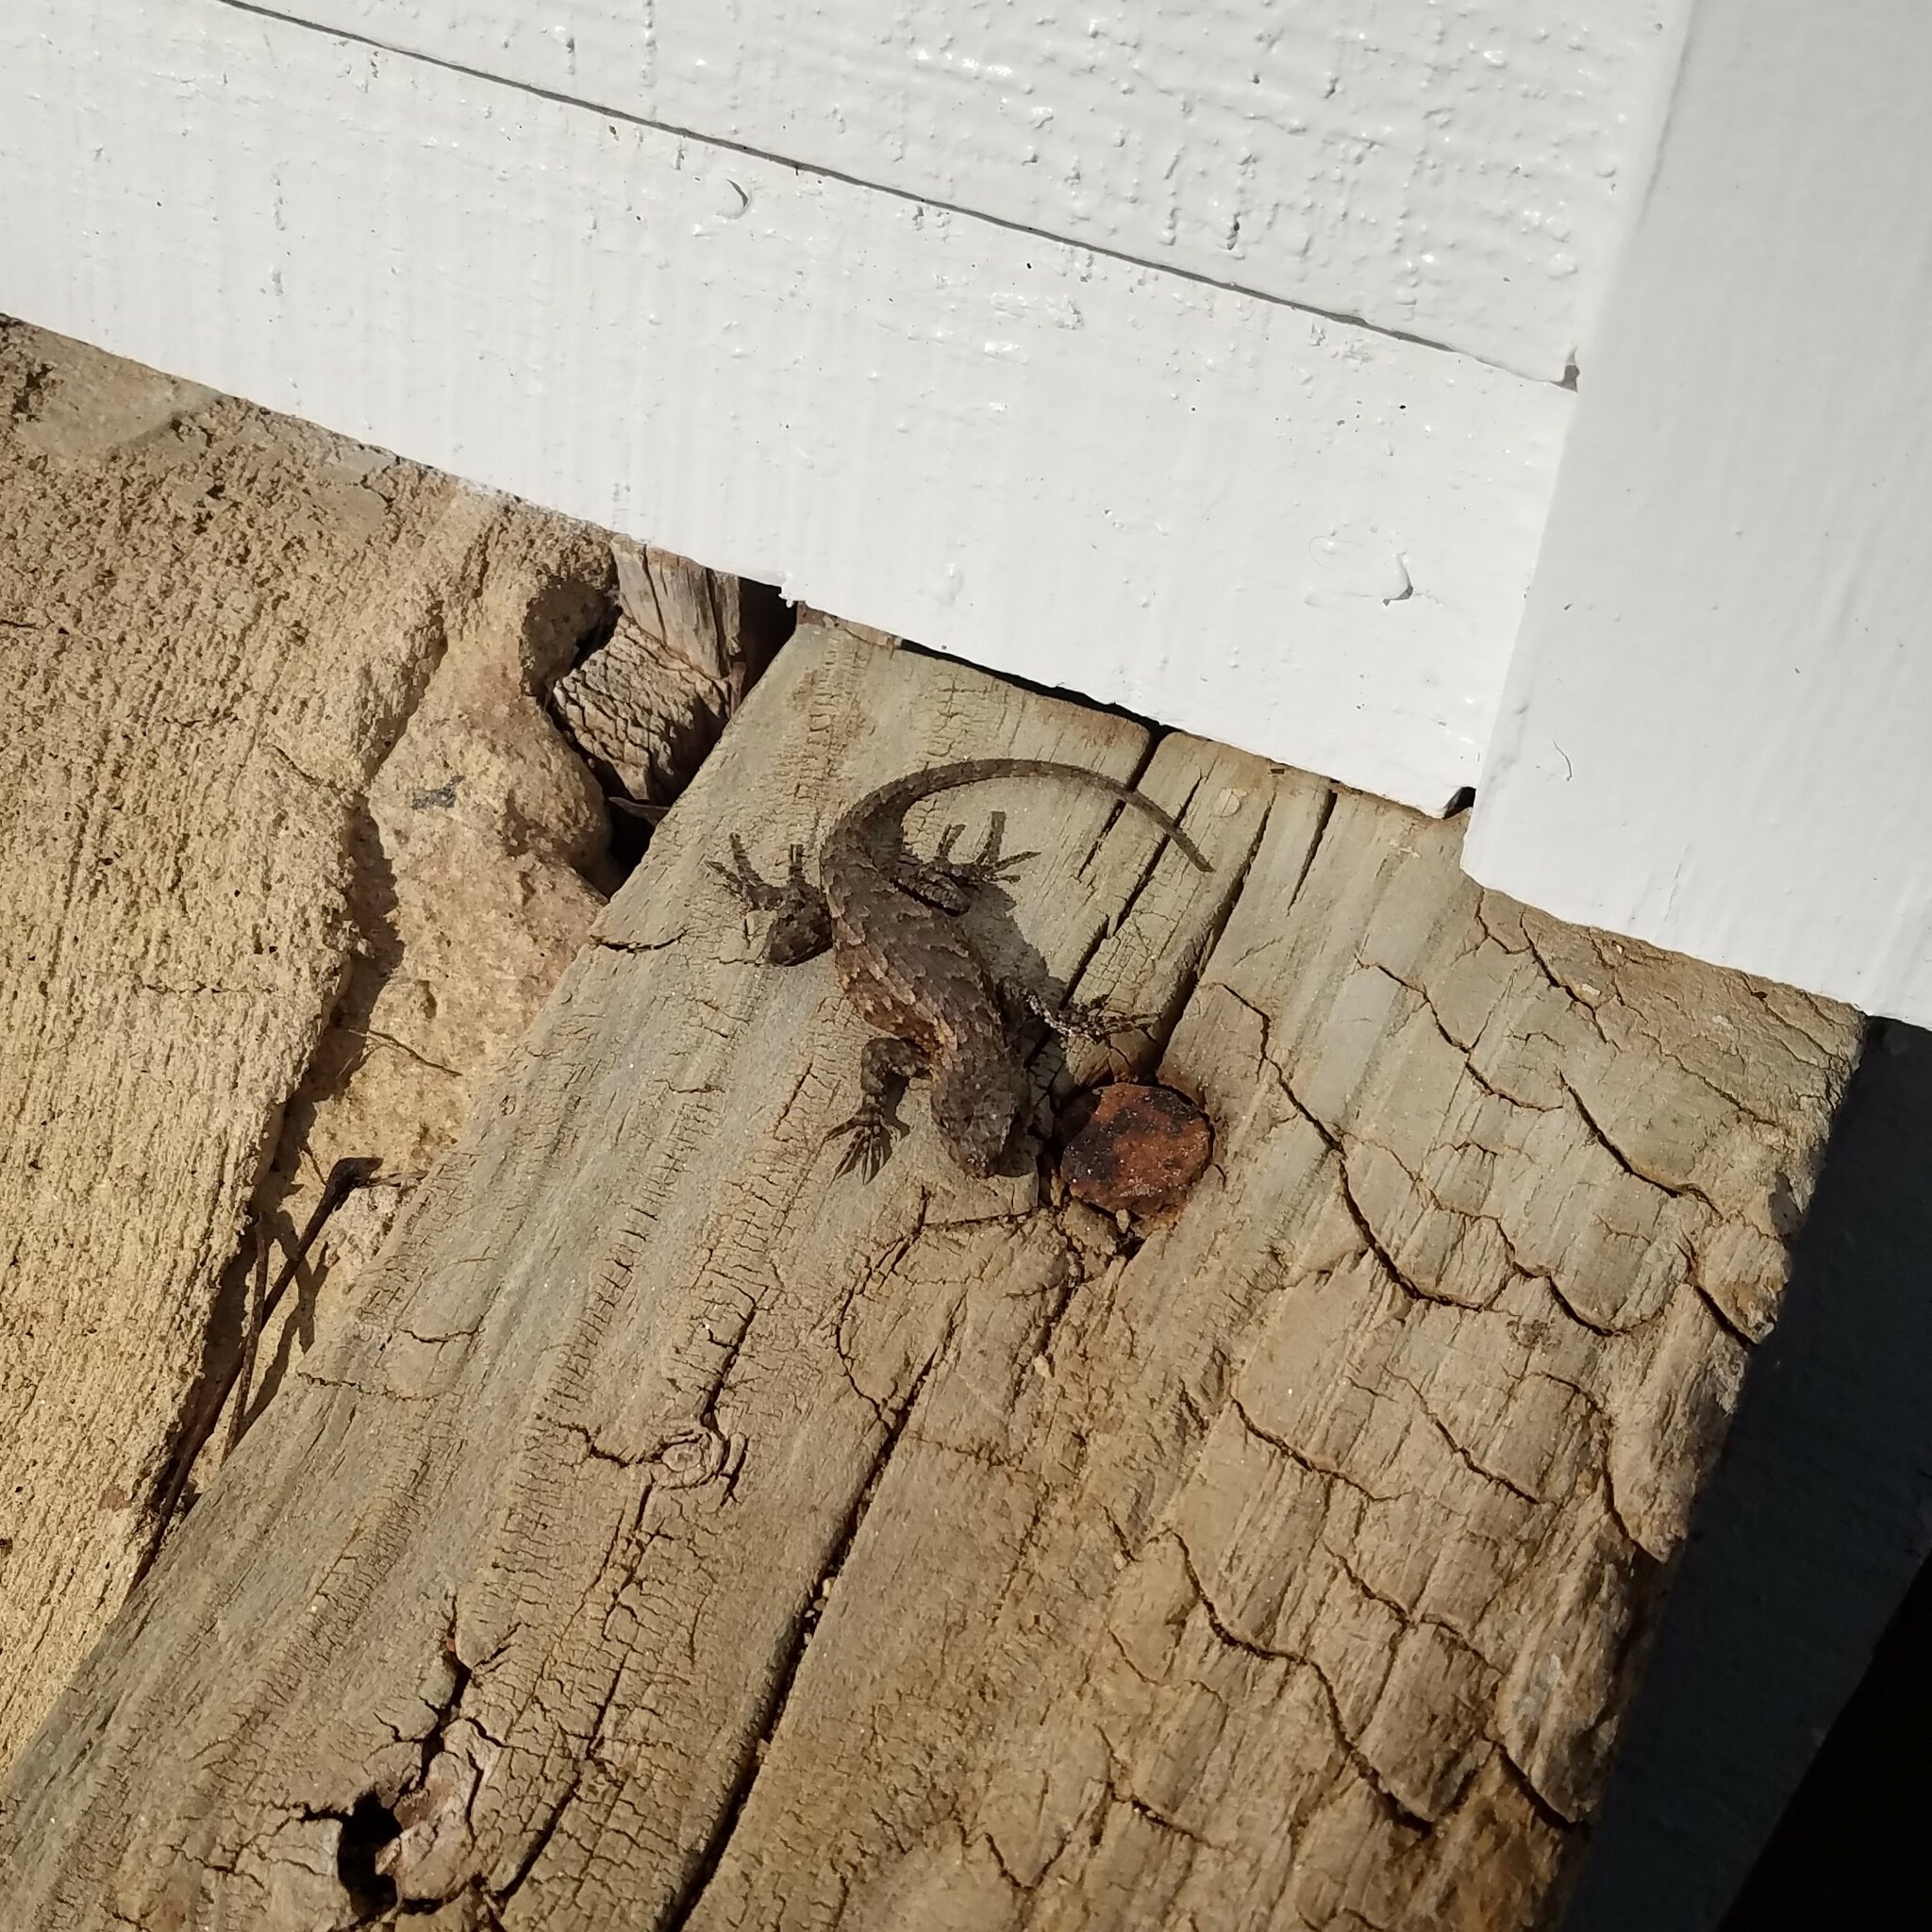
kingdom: Animalia
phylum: Chordata
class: Squamata
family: Phrynosomatidae
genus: Sceloporus
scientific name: Sceloporus undulatus
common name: Eastern fence lizard
